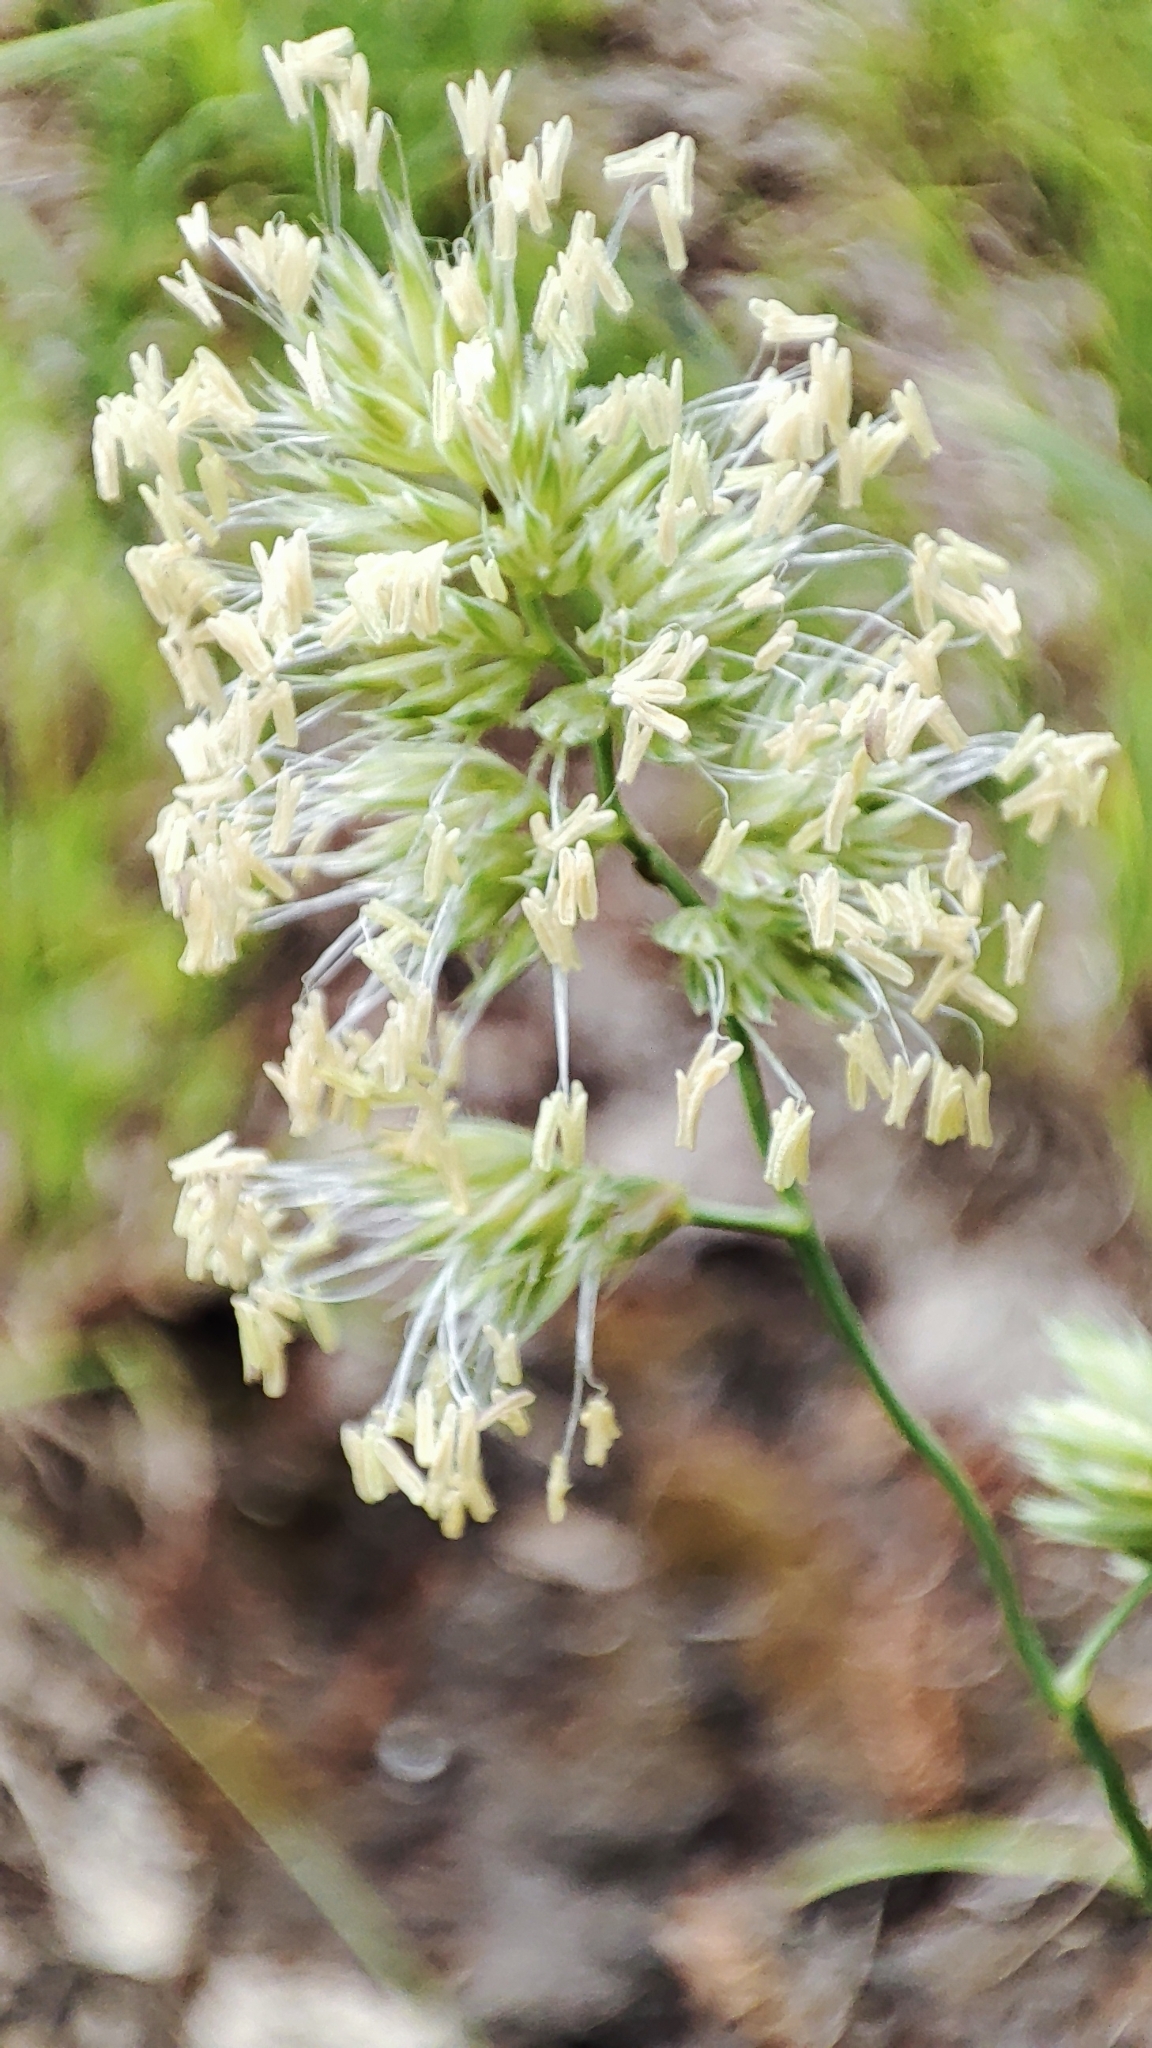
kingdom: Plantae
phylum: Tracheophyta
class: Liliopsida
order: Poales
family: Poaceae
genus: Dactylis
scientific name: Dactylis glomerata
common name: Orchardgrass
